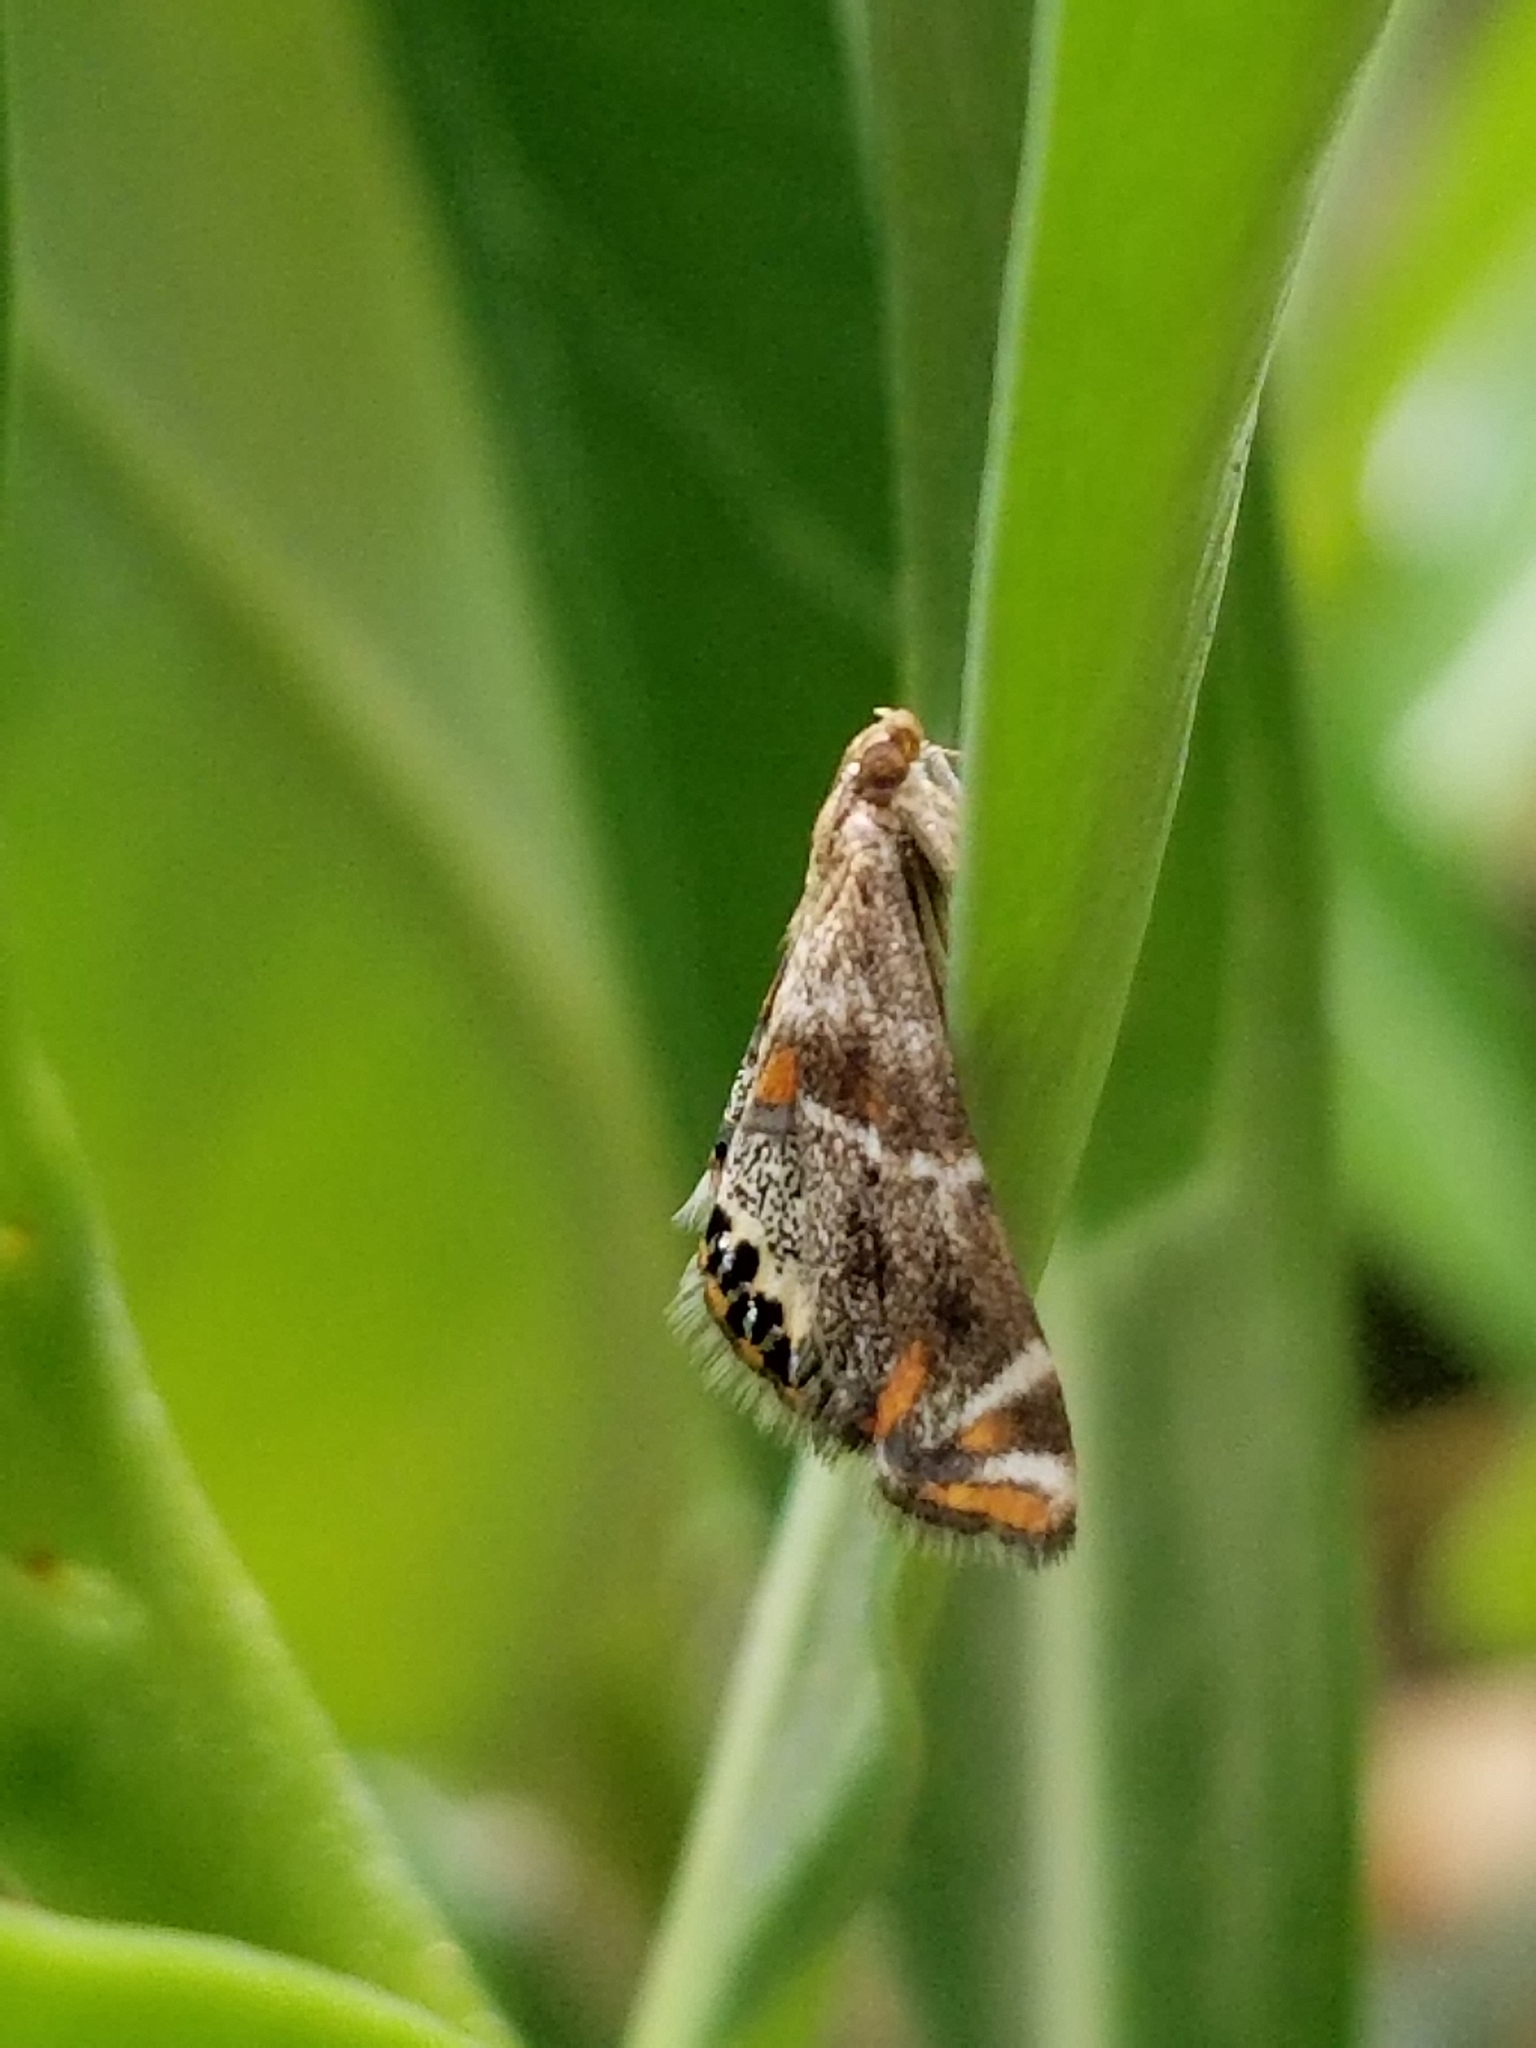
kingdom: Animalia
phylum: Arthropoda
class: Insecta
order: Lepidoptera
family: Crambidae
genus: Petrophila
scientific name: Petrophila jaliscalis
